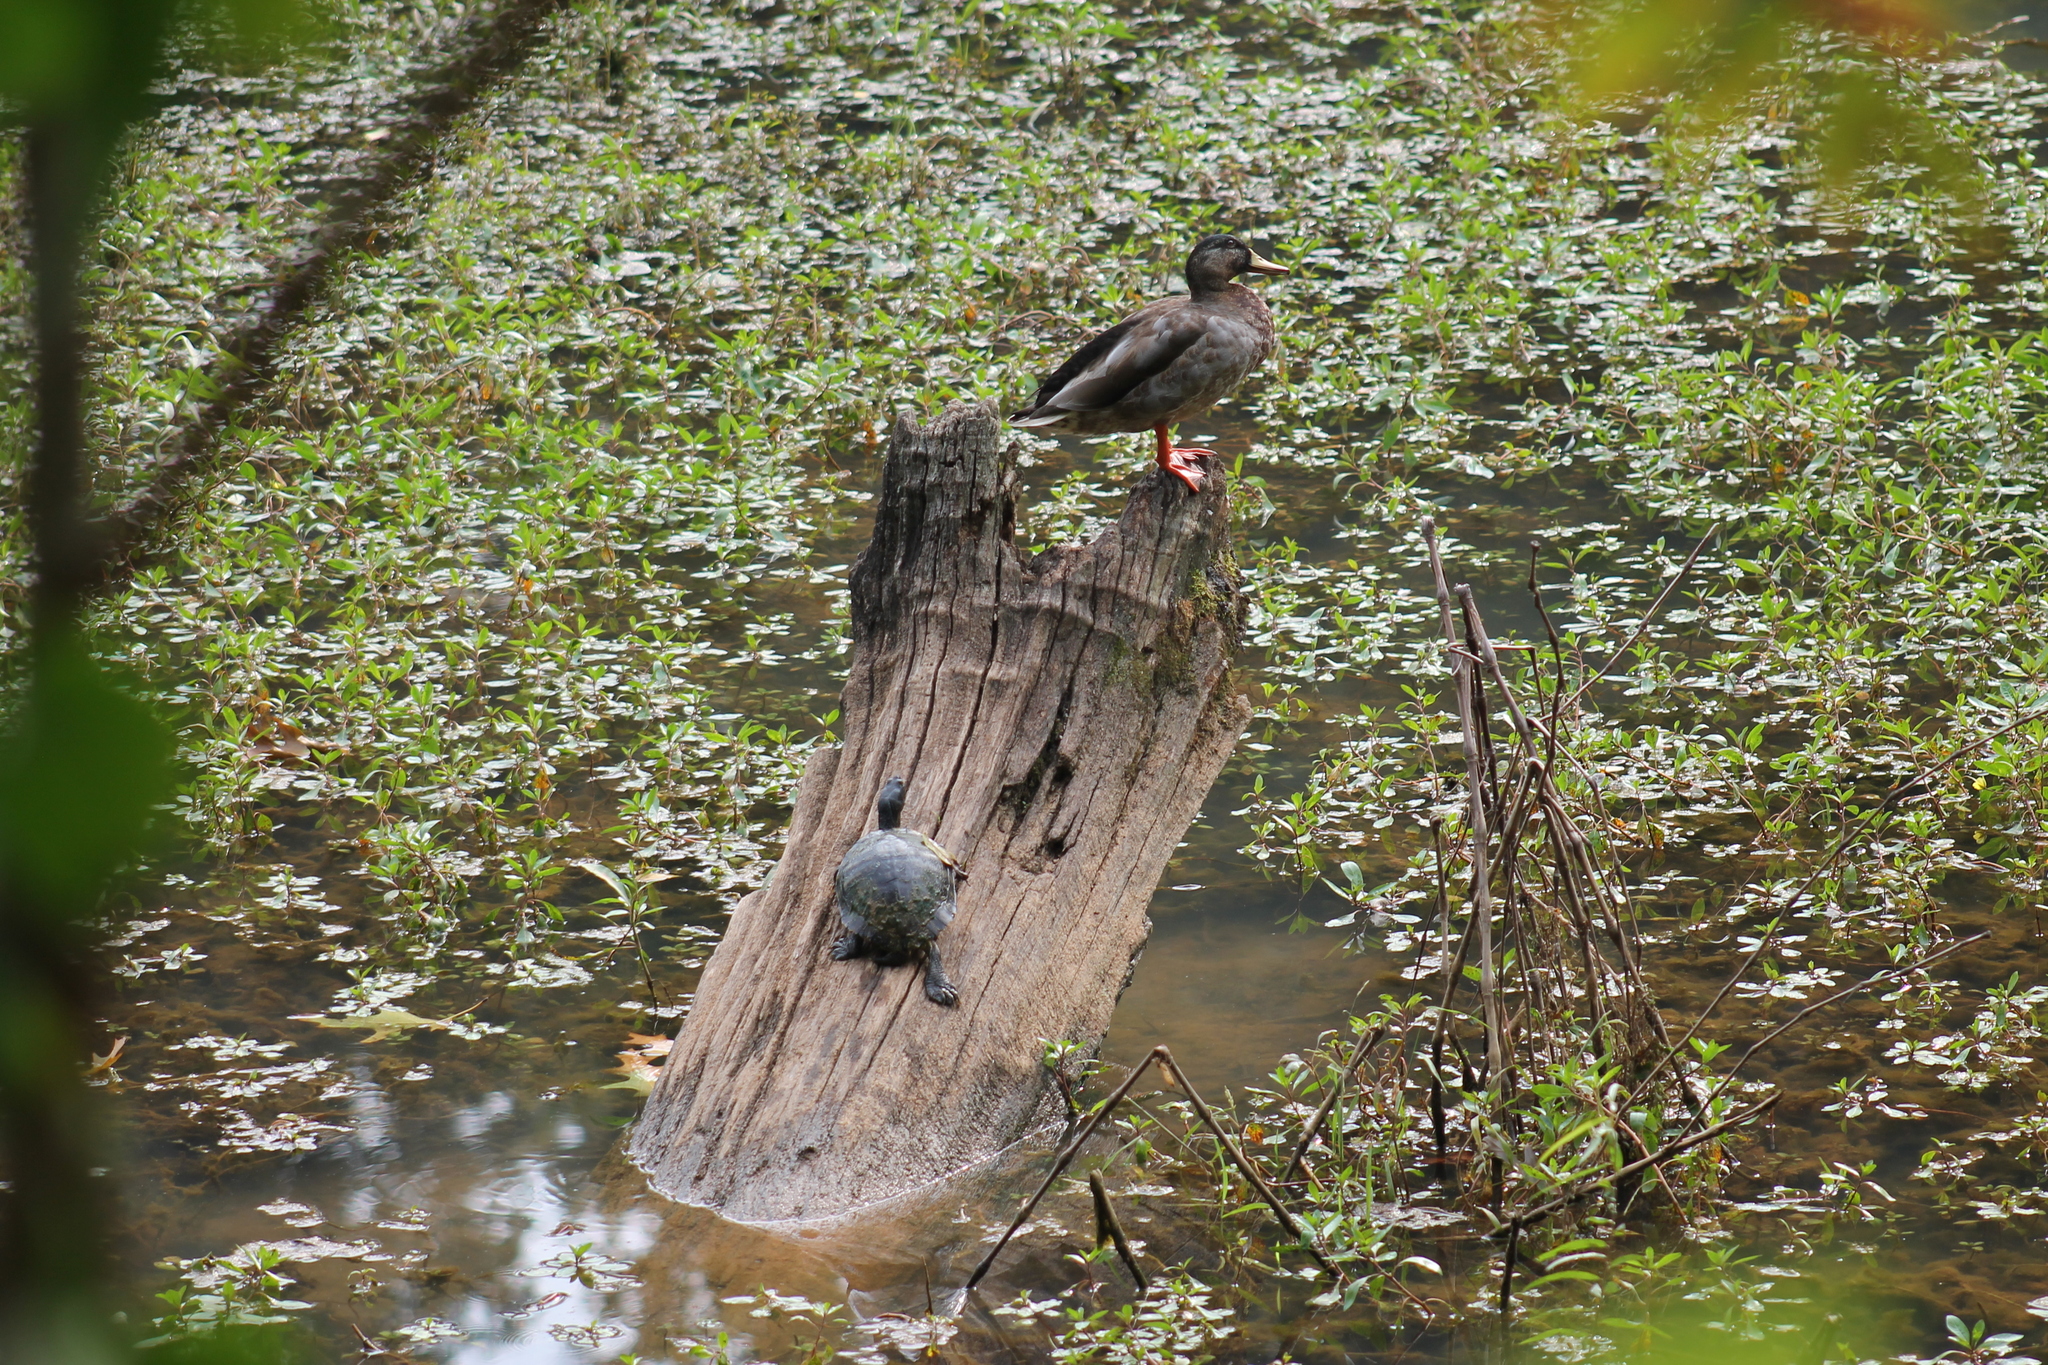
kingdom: Animalia
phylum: Chordata
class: Aves
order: Anseriformes
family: Anatidae
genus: Anas
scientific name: Anas platyrhynchos
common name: Mallard
